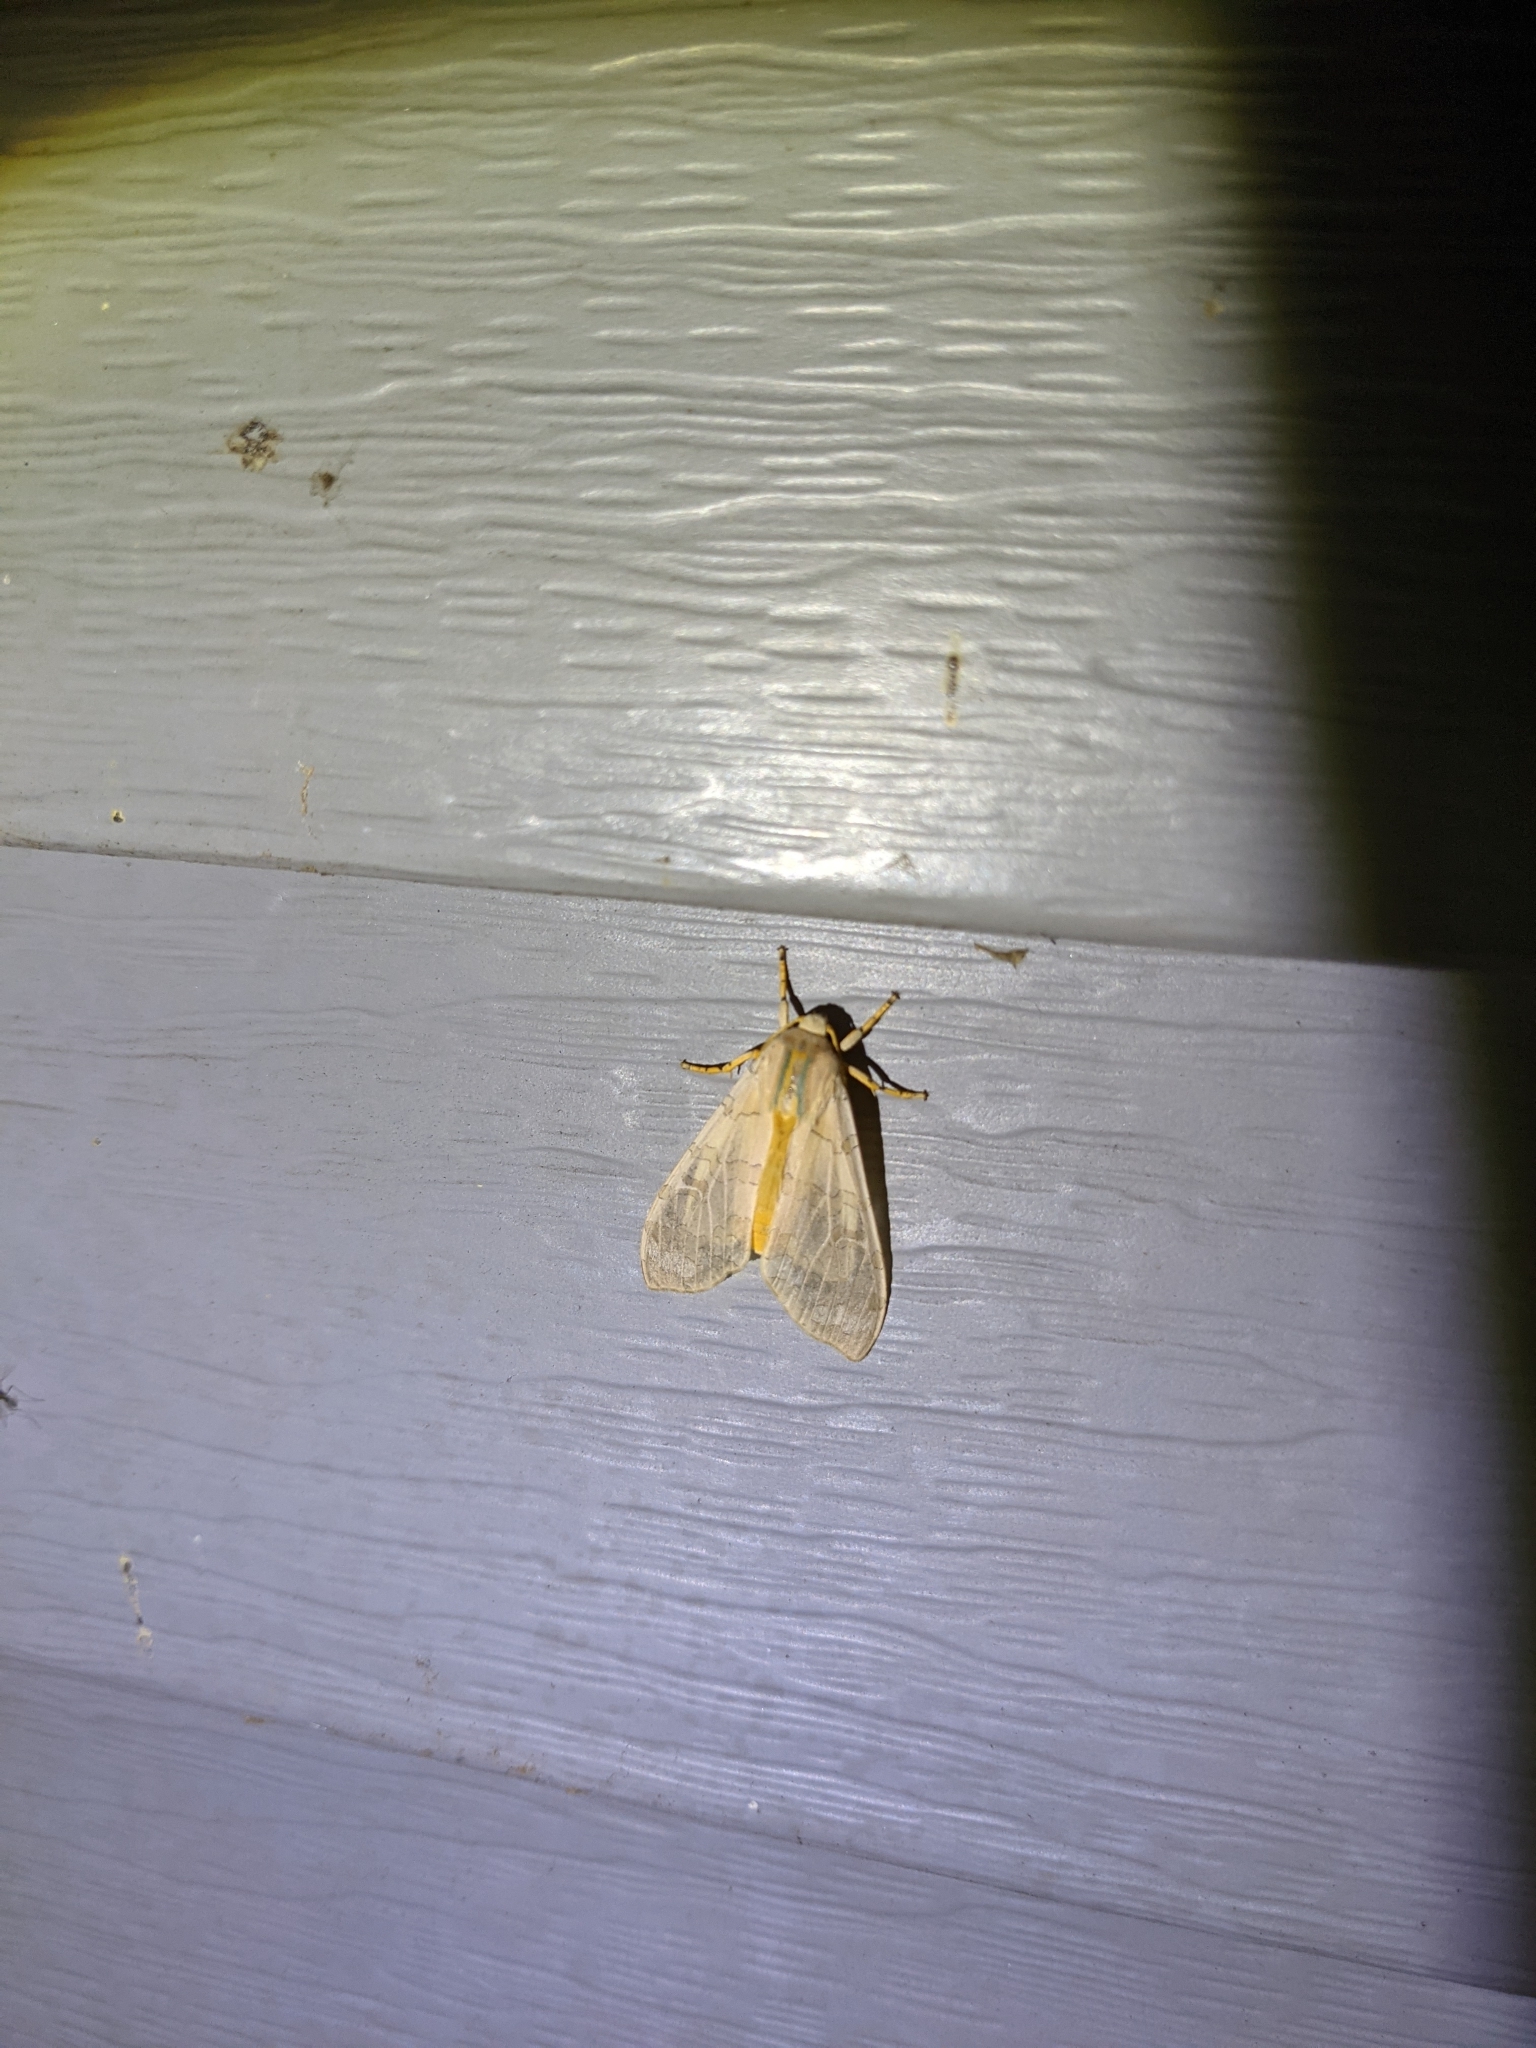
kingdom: Animalia
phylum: Arthropoda
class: Insecta
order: Lepidoptera
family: Erebidae
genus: Halysidota
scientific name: Halysidota
